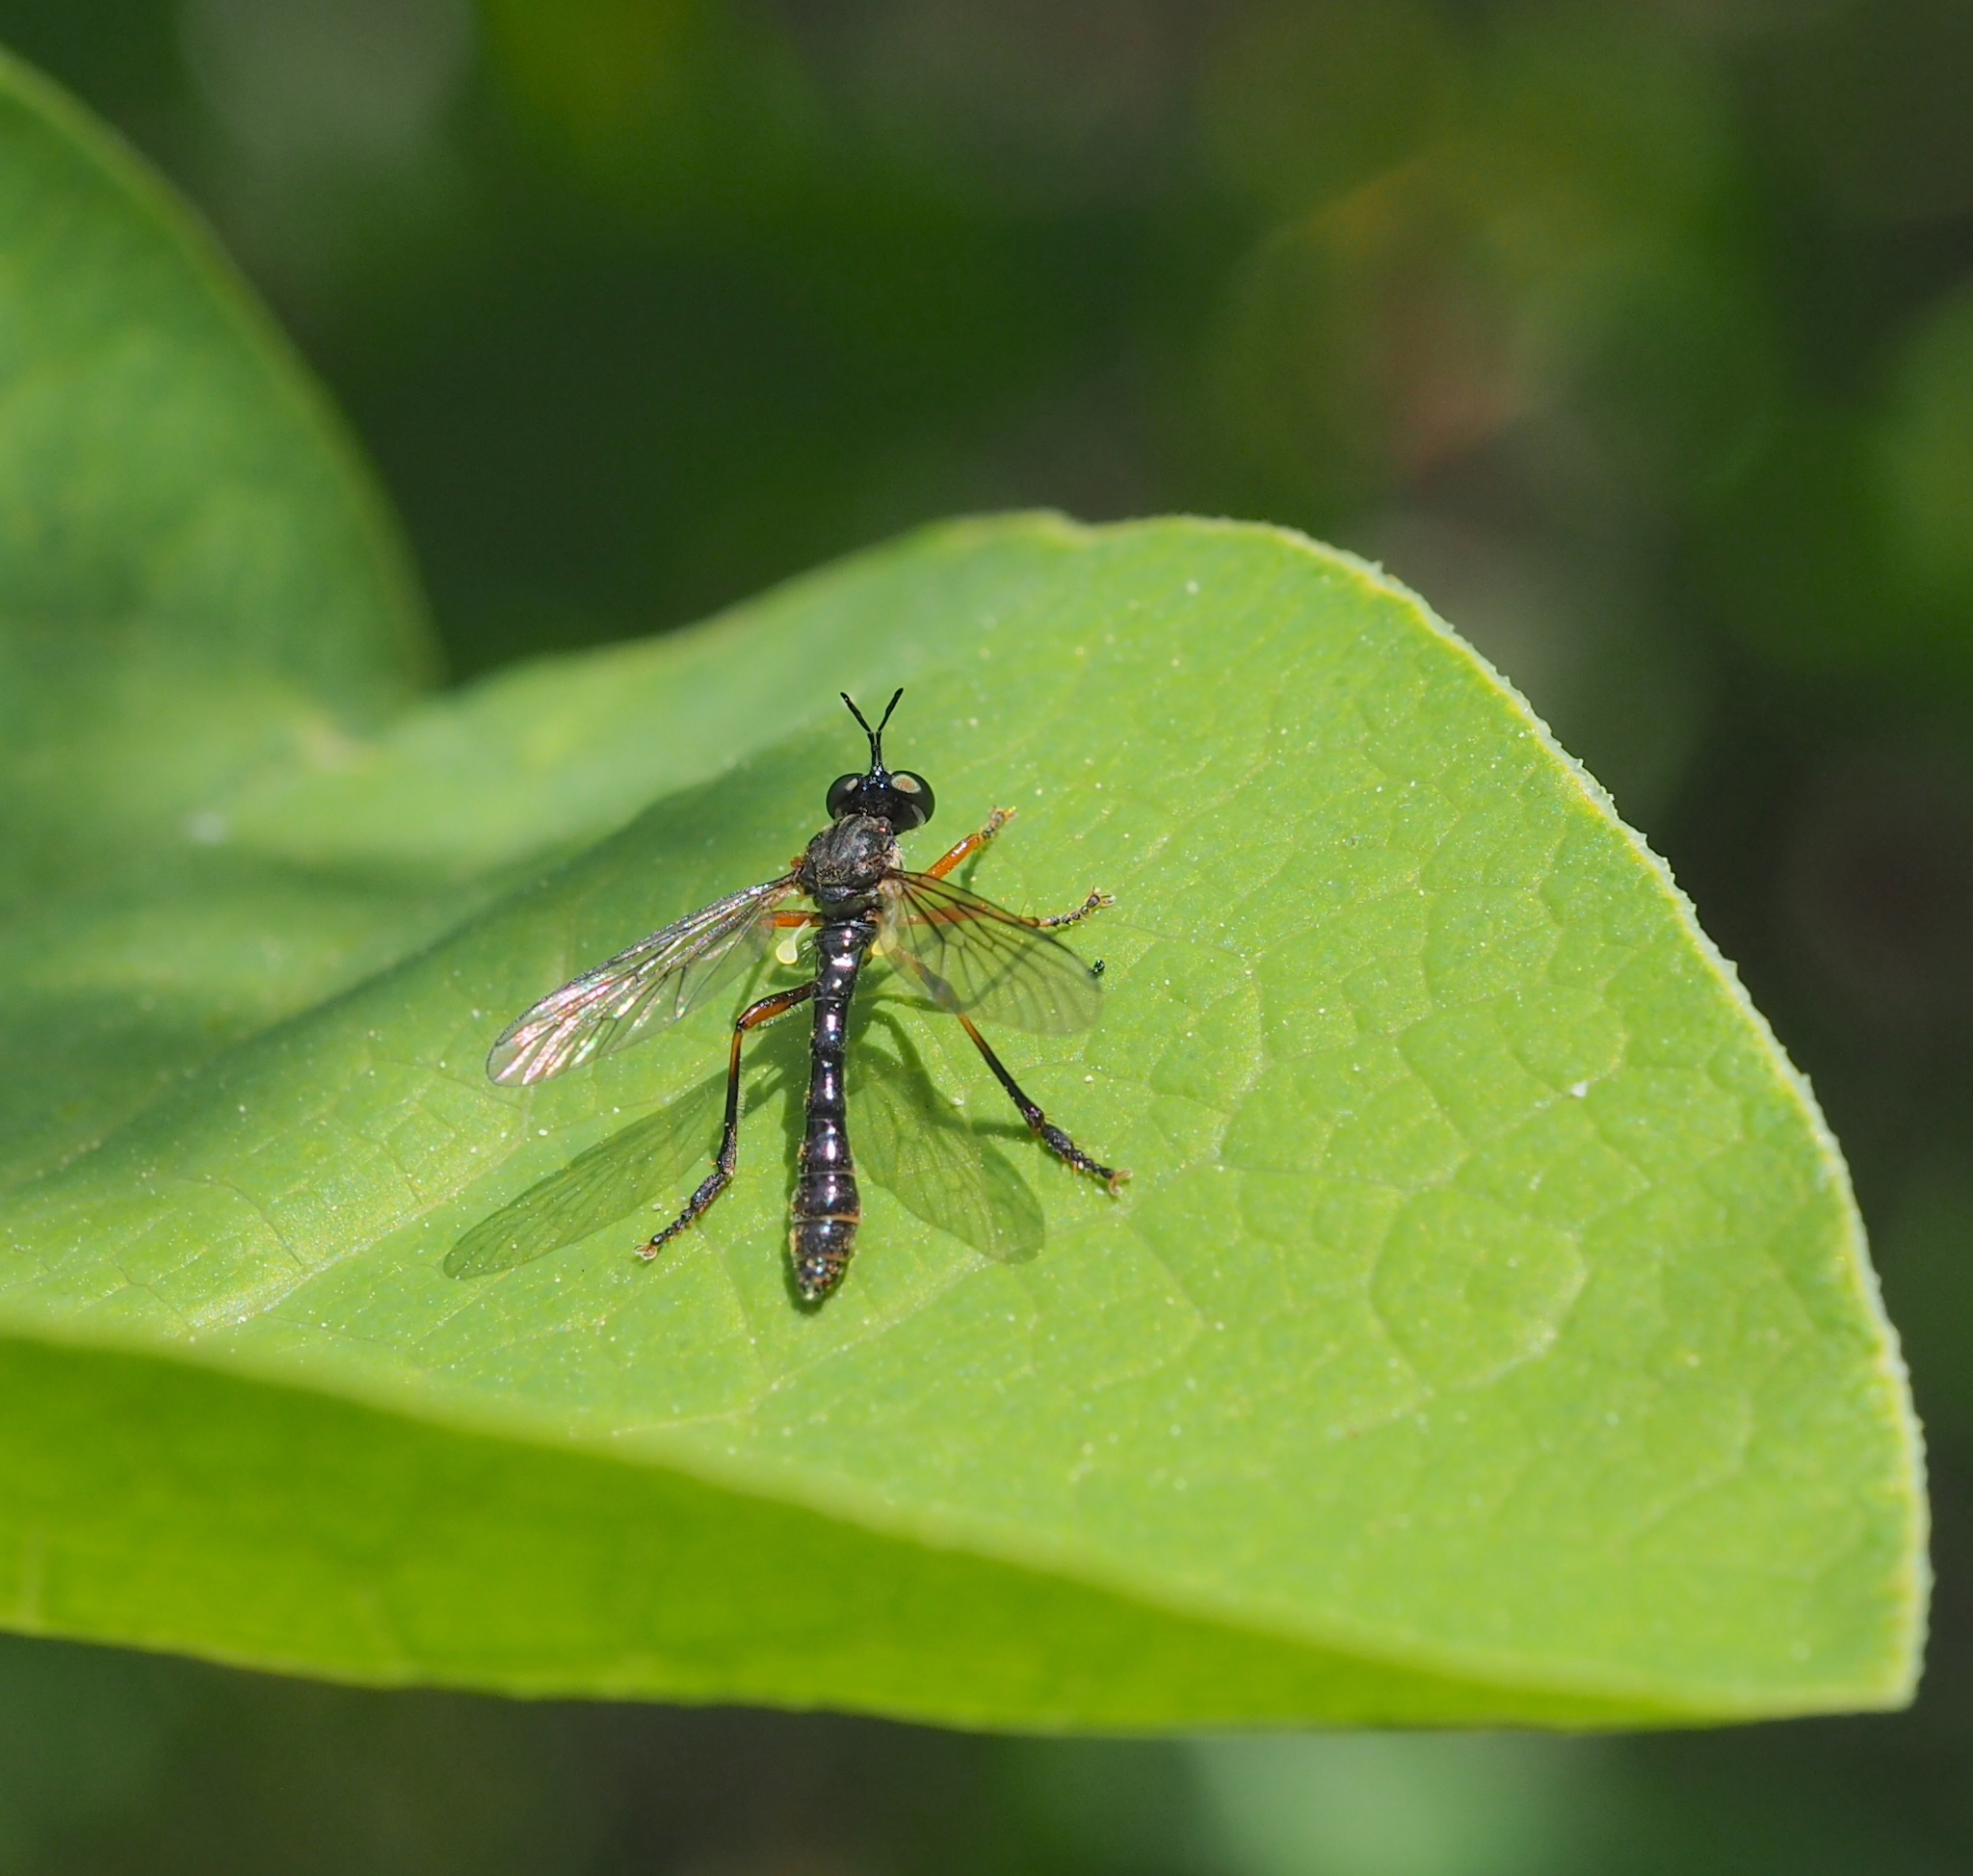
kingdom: Animalia
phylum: Arthropoda
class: Insecta
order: Diptera
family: Asilidae
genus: Dioctria
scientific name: Dioctria hyalipennis
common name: Stripe-legged robberfly
